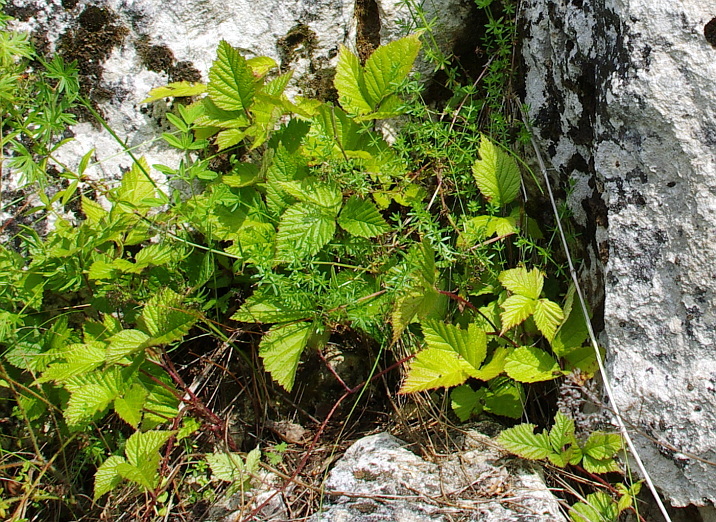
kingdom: Plantae
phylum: Tracheophyta
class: Magnoliopsida
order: Rosales
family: Rosaceae
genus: Rubus
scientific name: Rubus saxatilis
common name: Stone bramble
